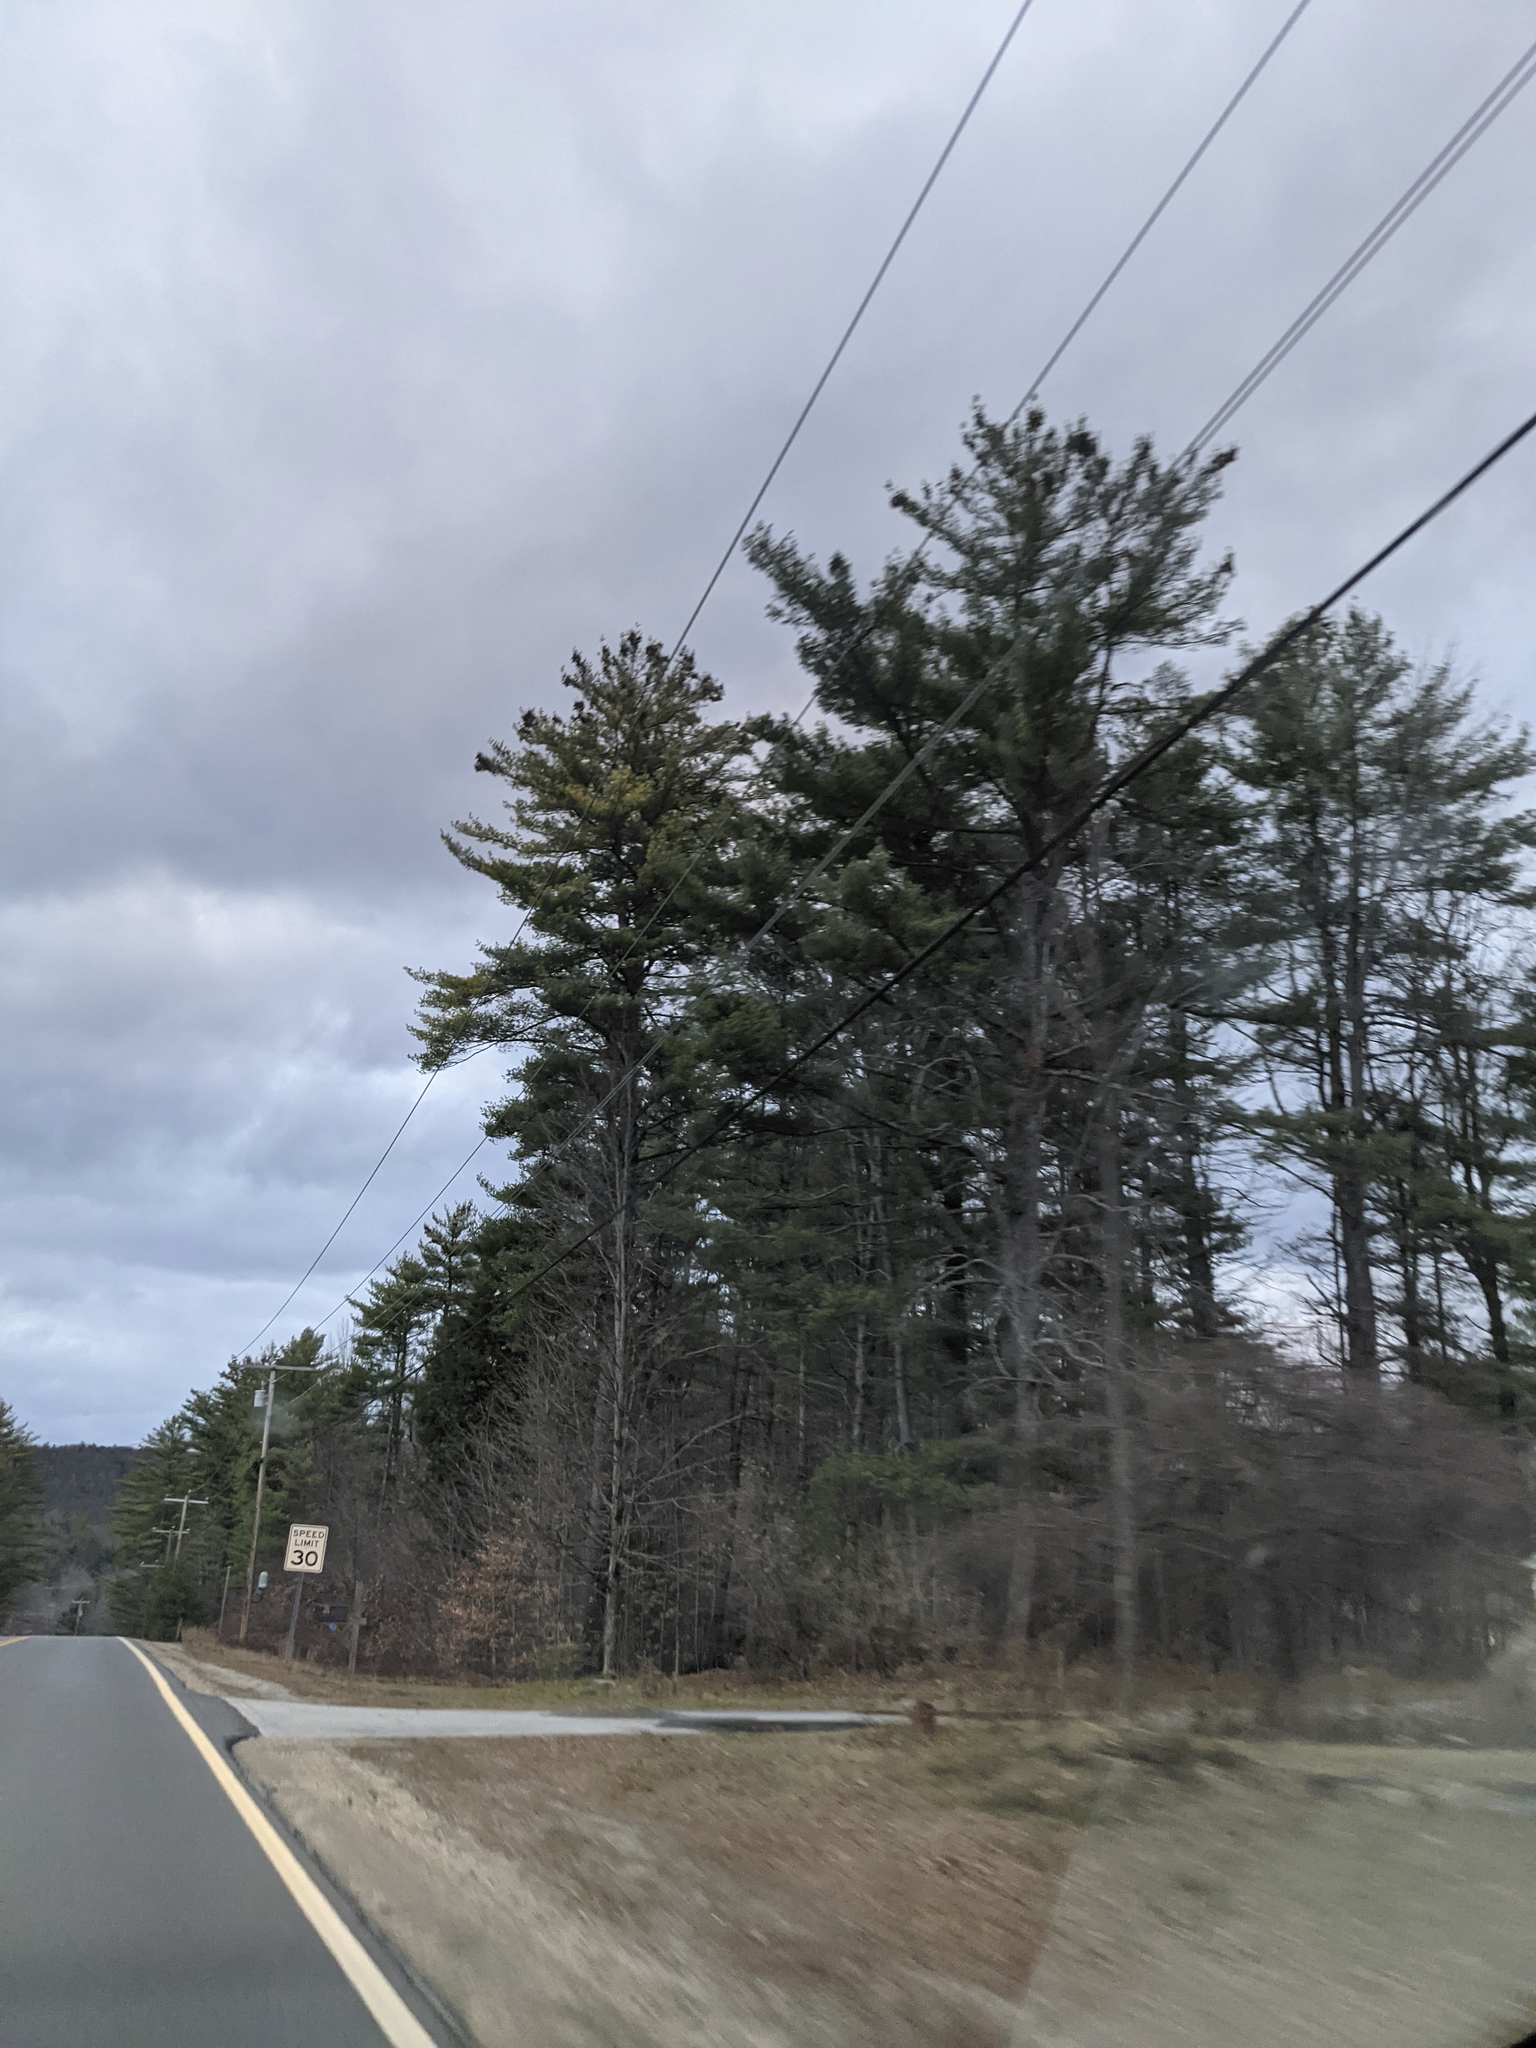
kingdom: Plantae
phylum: Tracheophyta
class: Pinopsida
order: Pinales
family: Pinaceae
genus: Pinus
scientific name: Pinus strobus
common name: Weymouth pine
